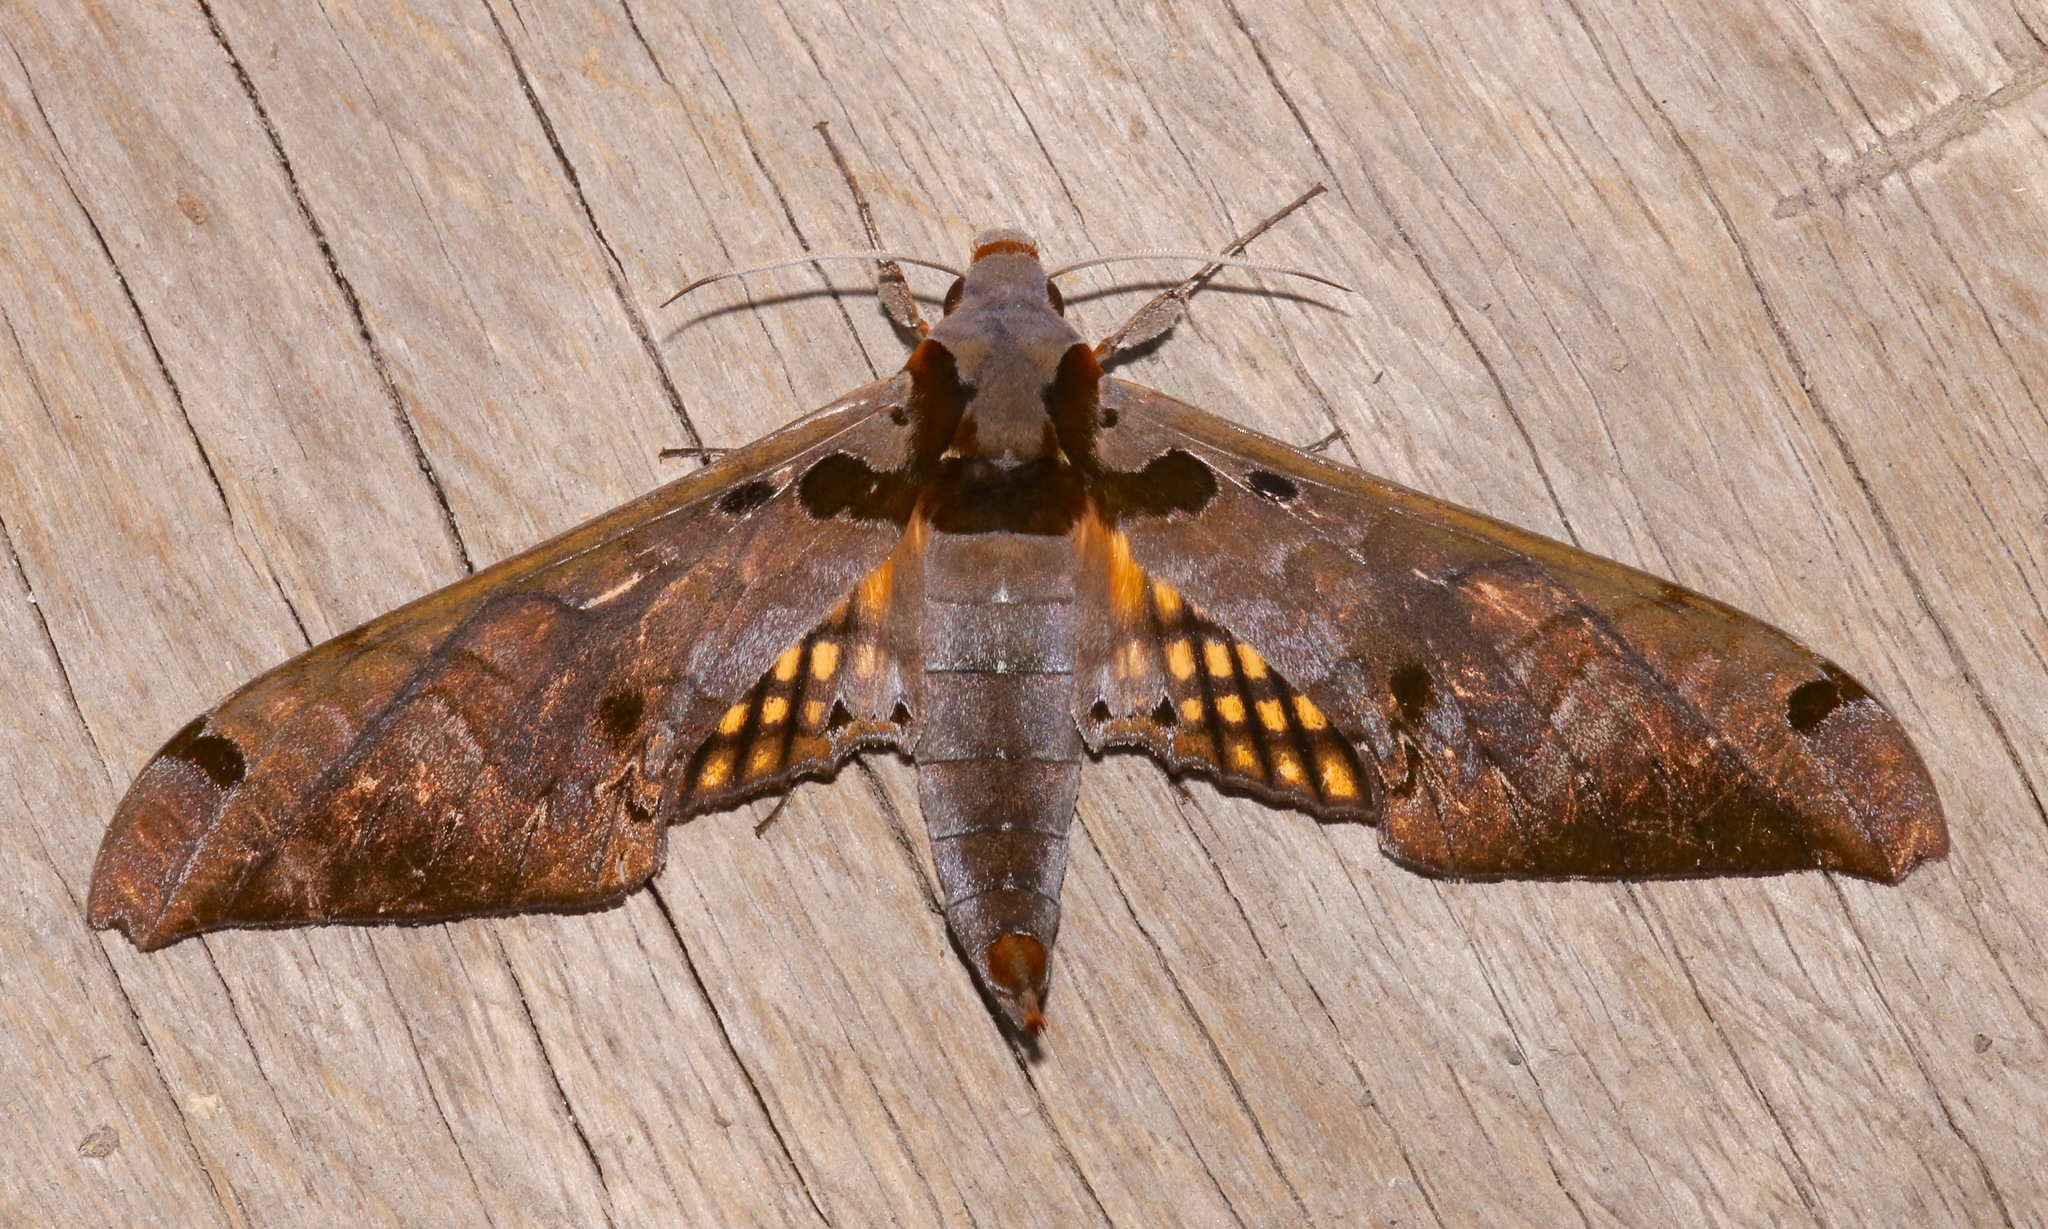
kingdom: Animalia
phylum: Arthropoda
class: Insecta
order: Lepidoptera
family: Sphingidae
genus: Adhemarius
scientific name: Adhemarius tigrina
